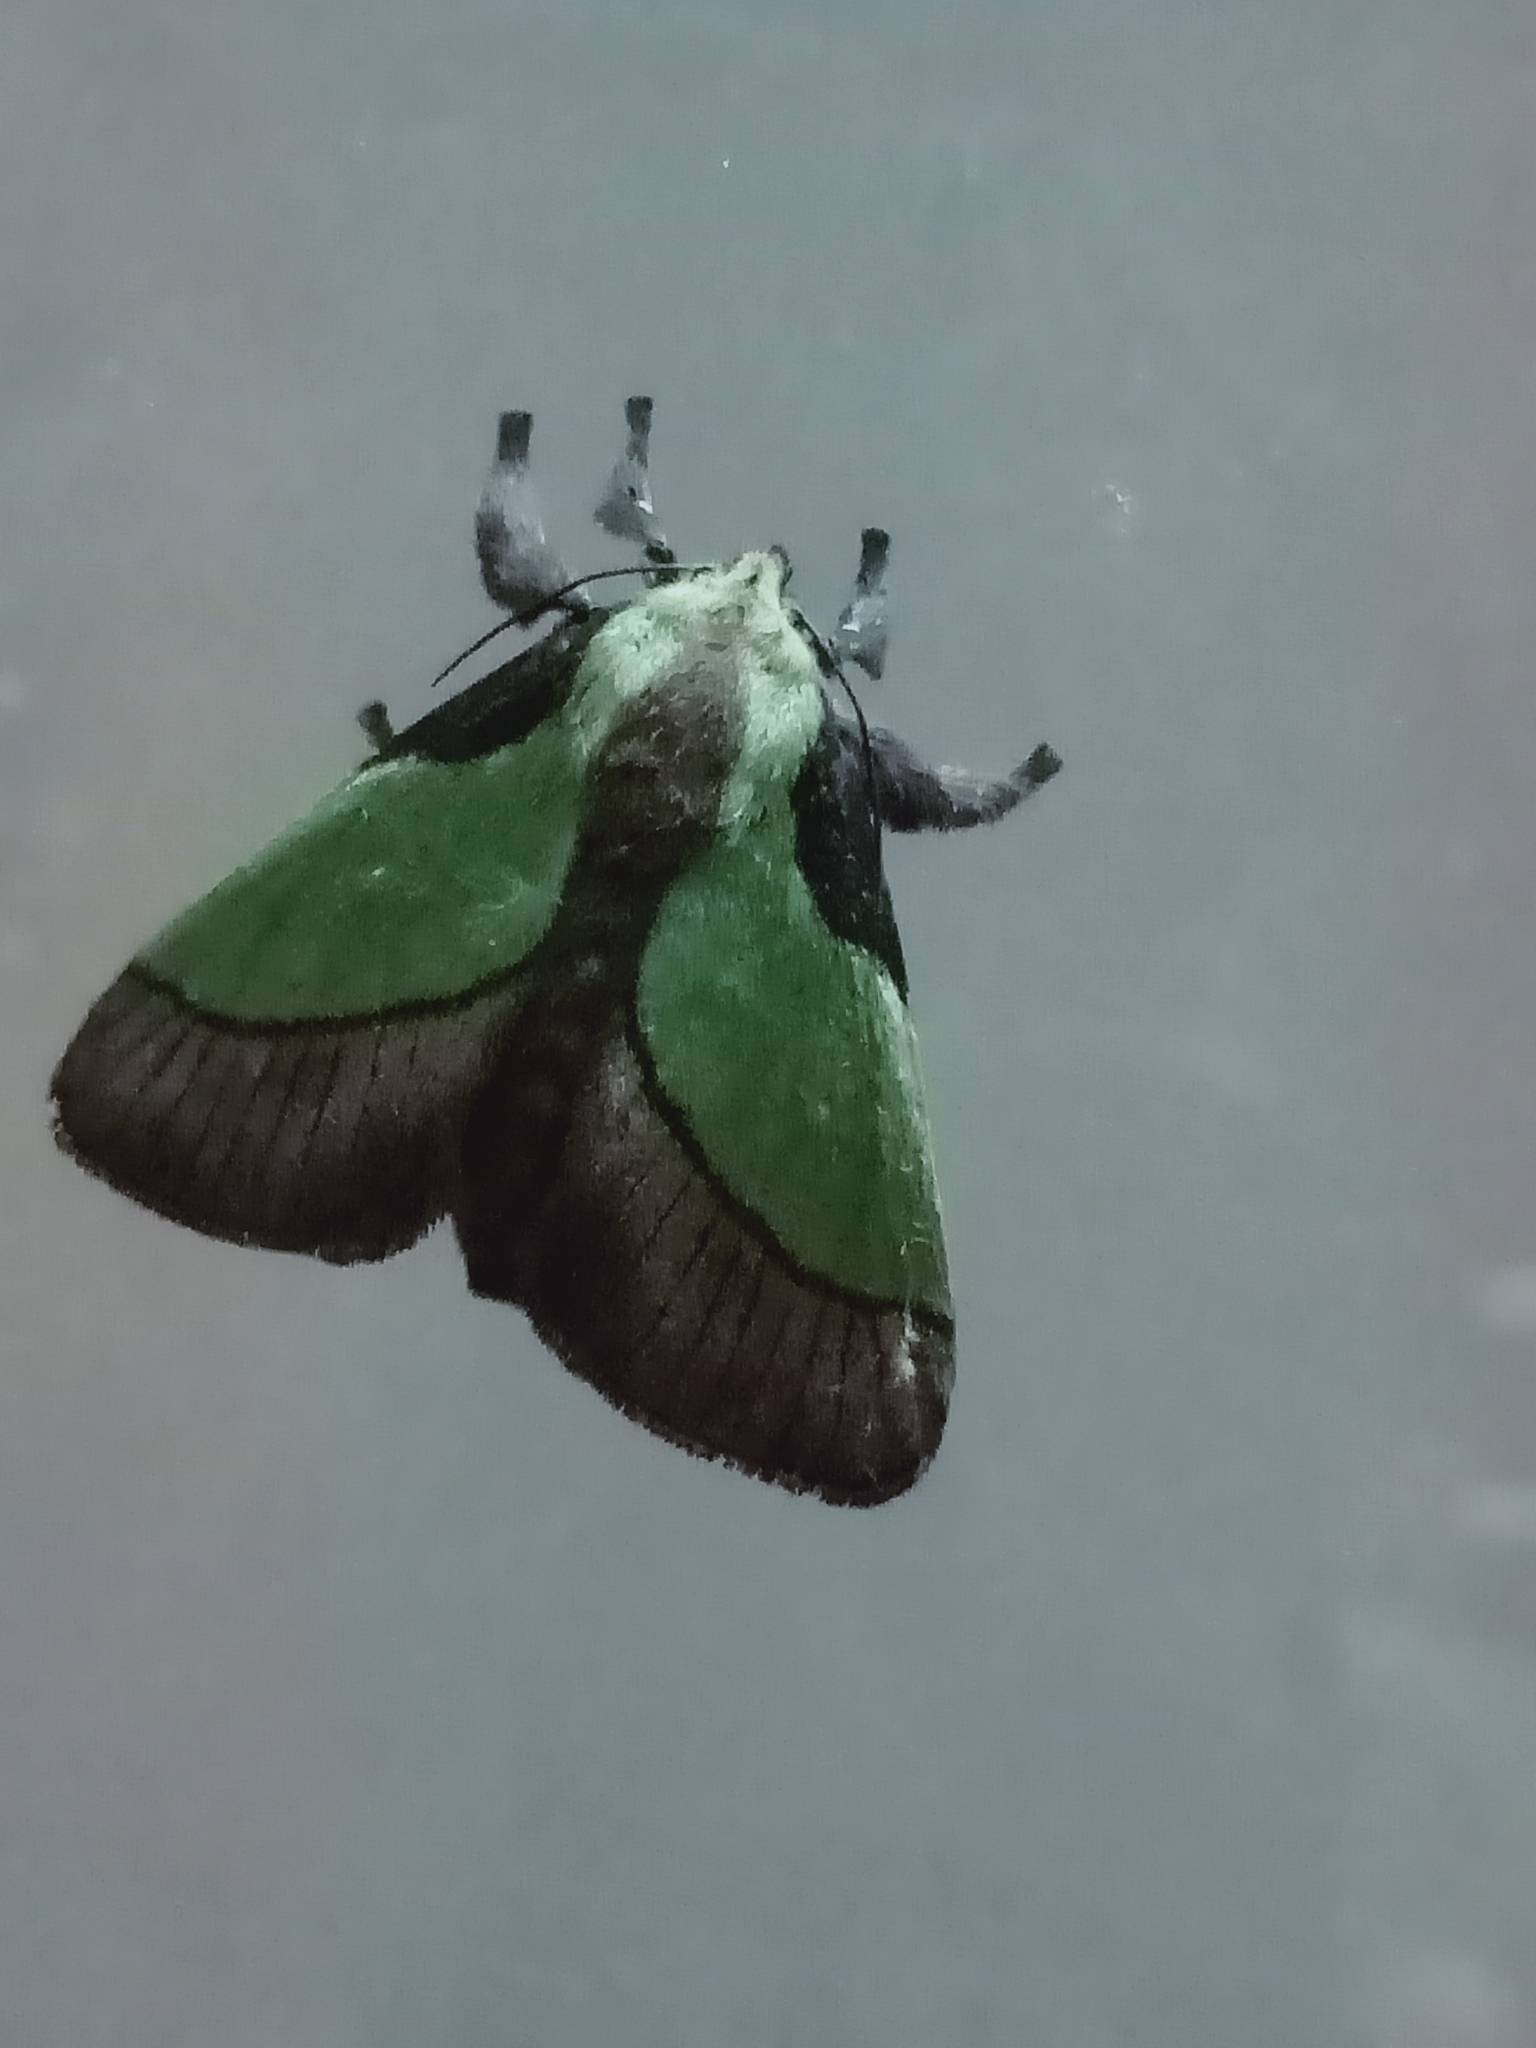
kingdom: Animalia
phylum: Arthropoda
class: Insecta
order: Lepidoptera
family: Limacodidae
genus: Parasa
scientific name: Parasa lepida
